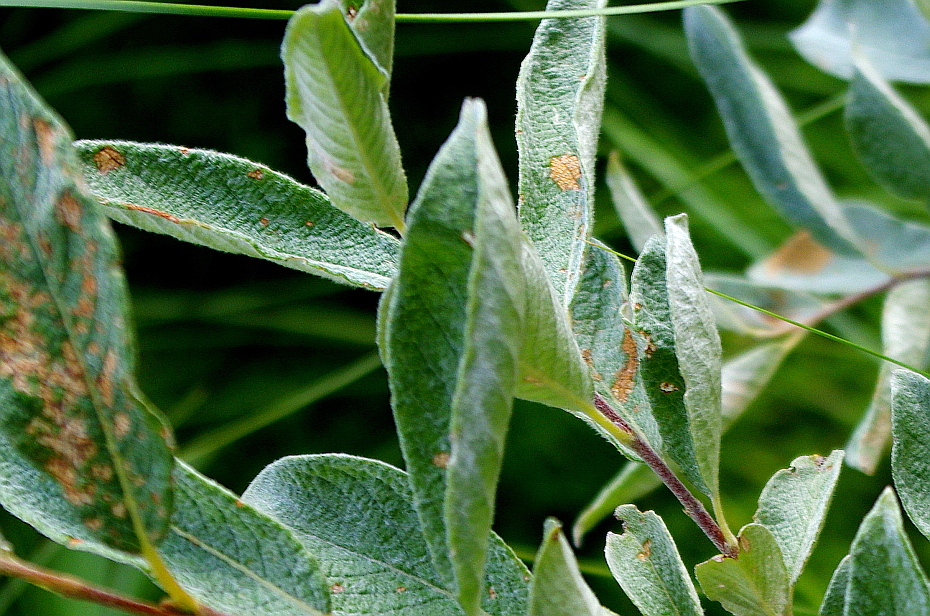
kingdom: Plantae
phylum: Tracheophyta
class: Magnoliopsida
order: Malpighiales
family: Salicaceae
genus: Salix
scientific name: Salix lapponum
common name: Downy willow
